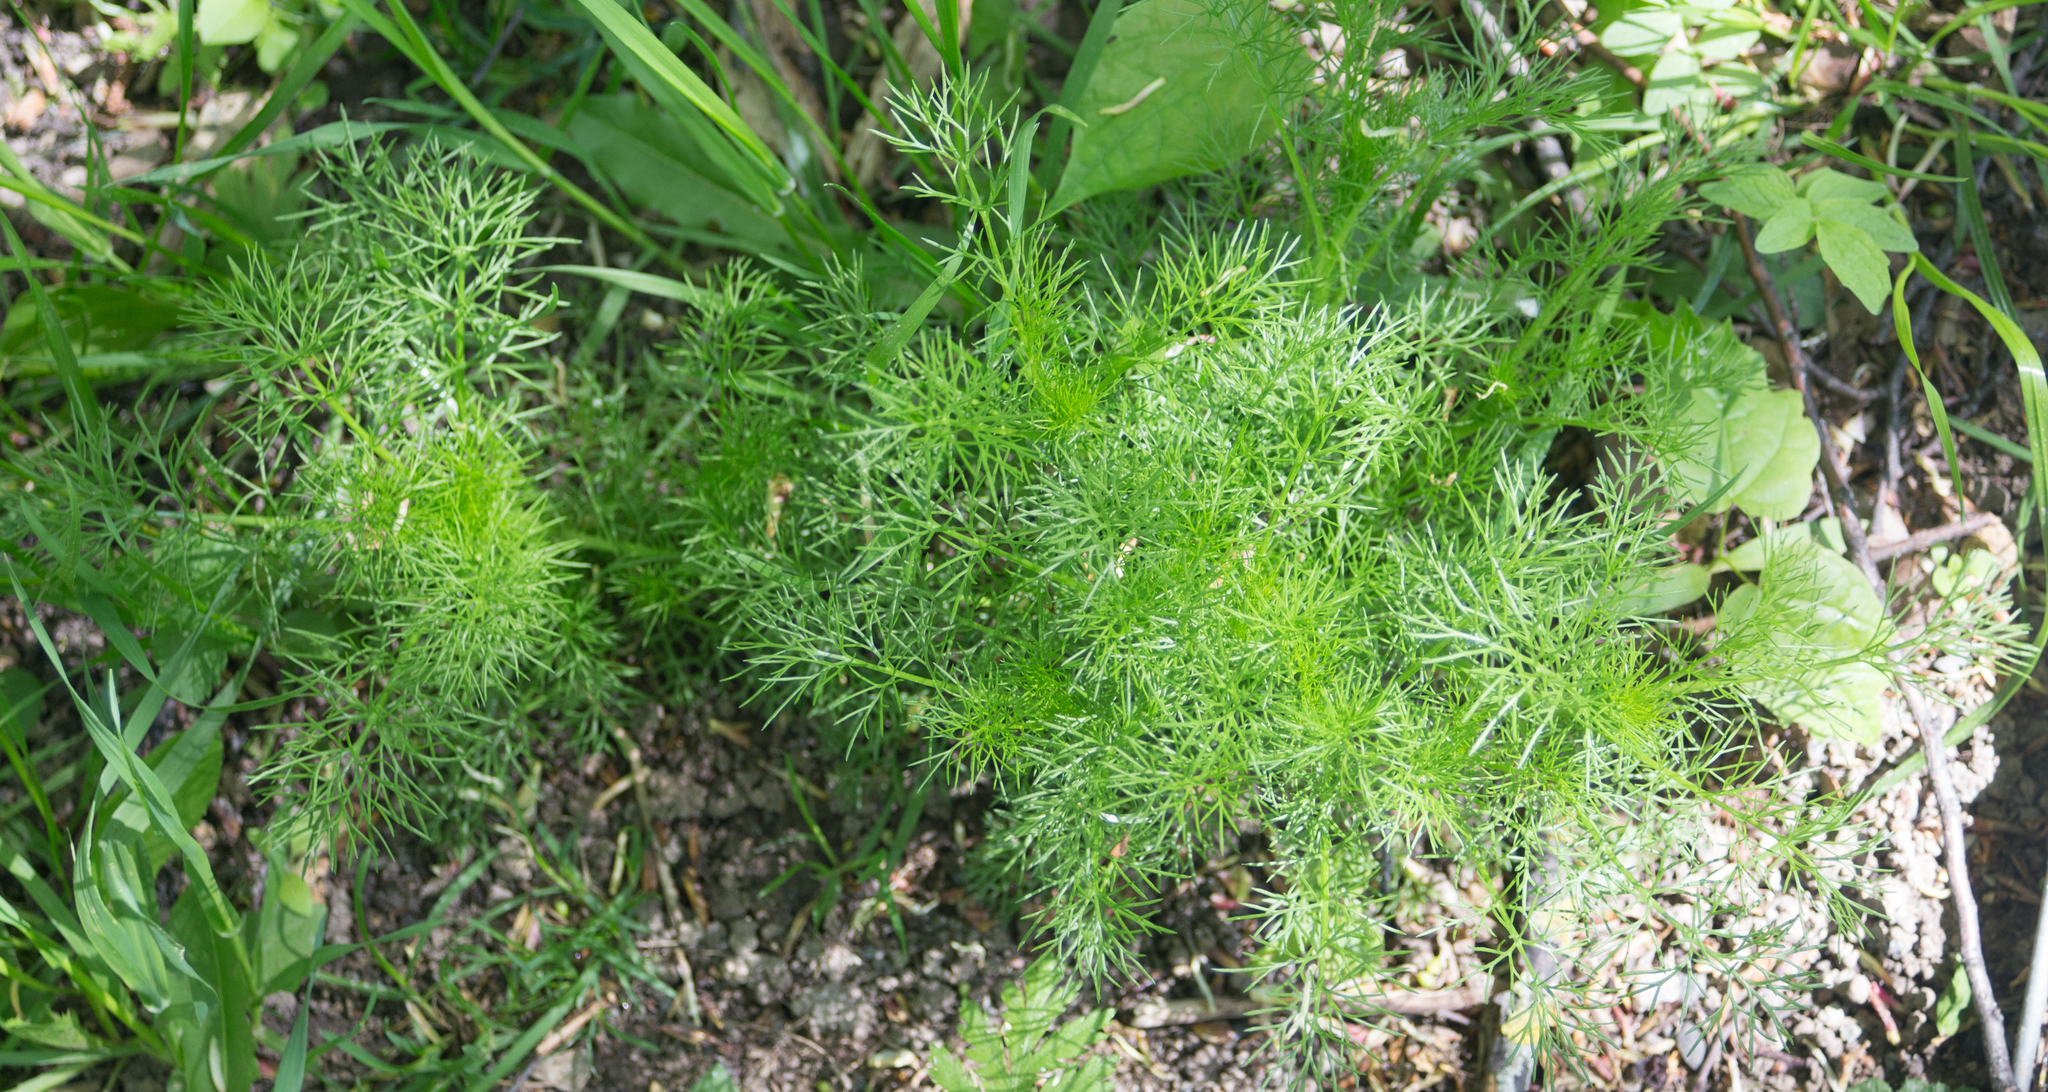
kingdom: Plantae
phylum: Tracheophyta
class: Magnoliopsida
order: Asterales
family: Asteraceae
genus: Tripleurospermum
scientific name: Tripleurospermum inodorum
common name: Scentless mayweed
